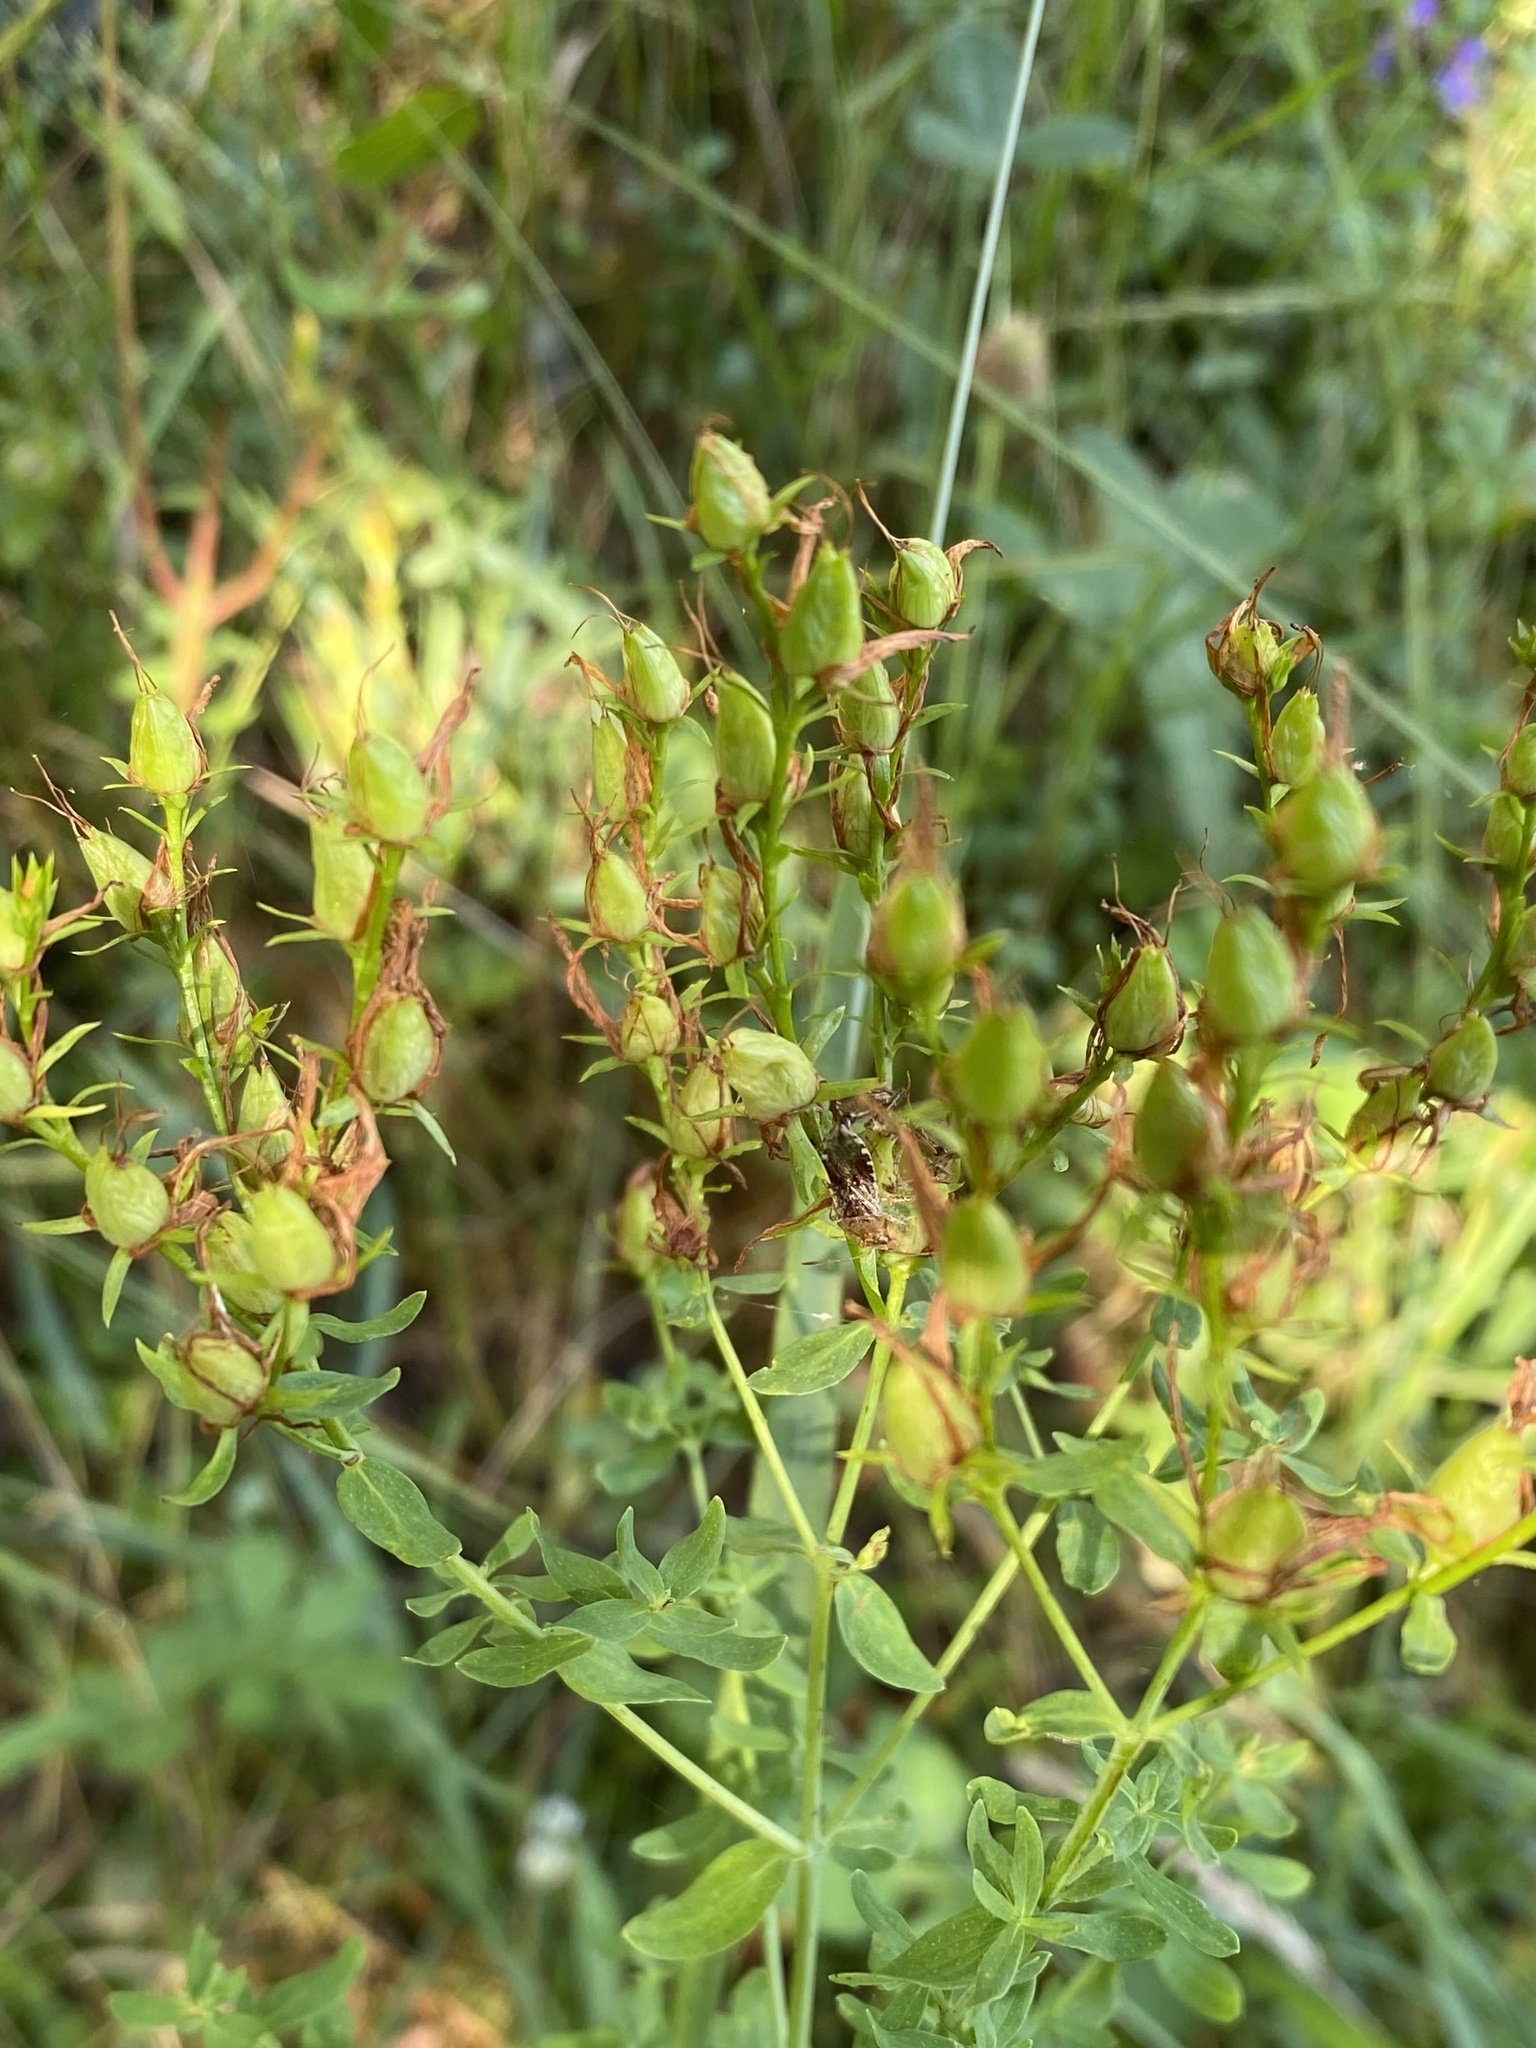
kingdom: Plantae
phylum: Tracheophyta
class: Magnoliopsida
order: Malpighiales
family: Hypericaceae
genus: Hypericum
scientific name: Hypericum perforatum
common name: Common st. johnswort
